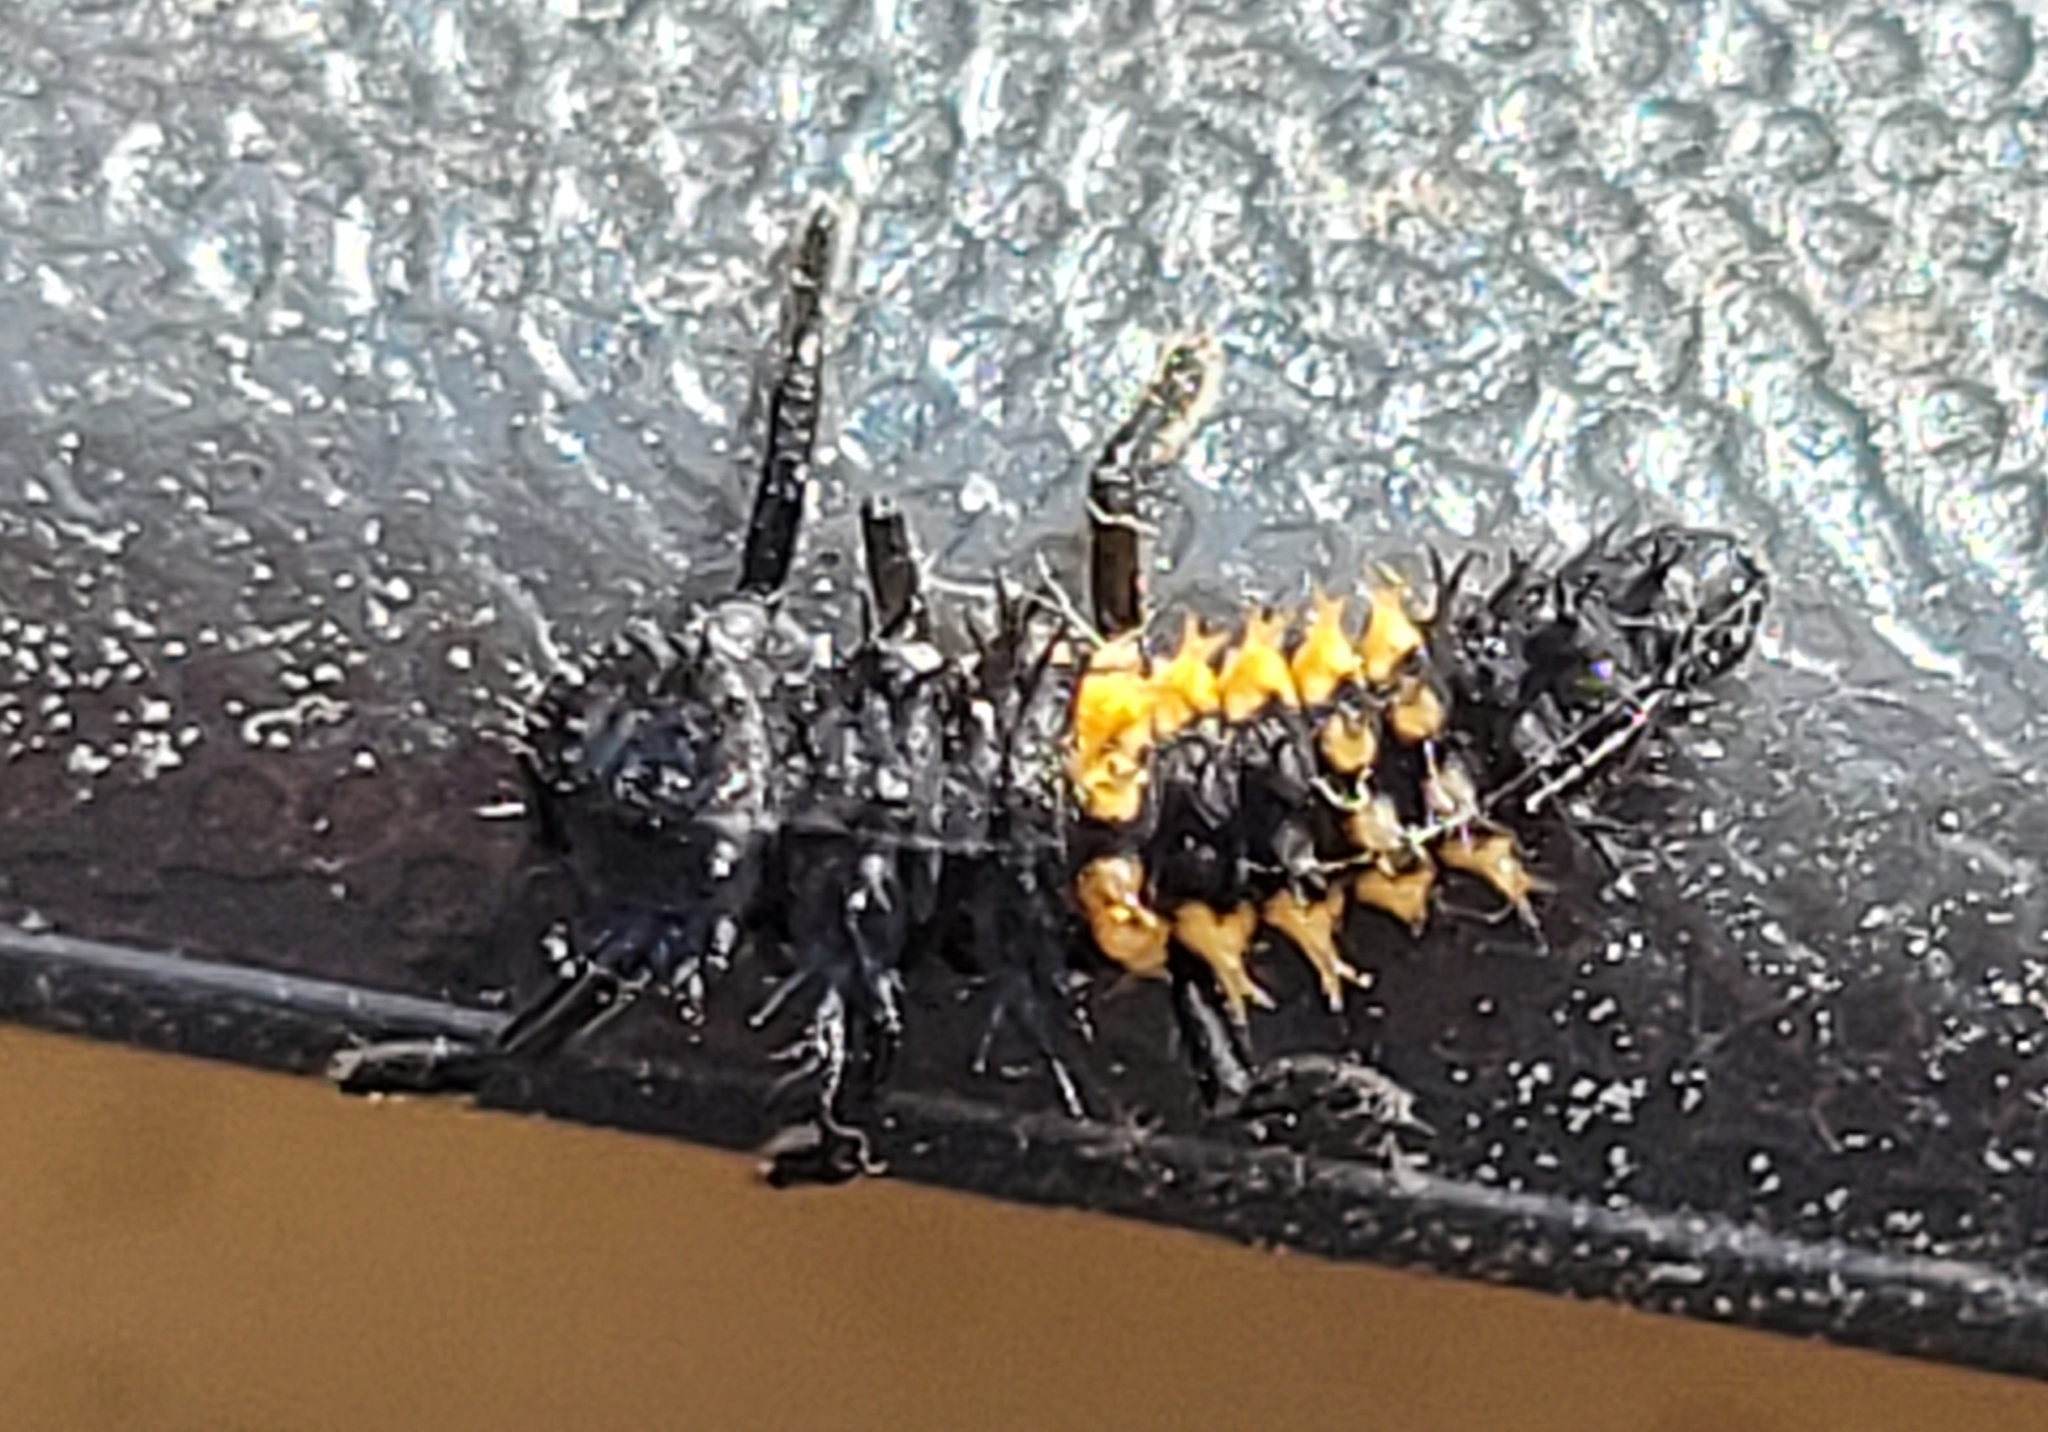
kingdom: Animalia
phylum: Arthropoda
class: Insecta
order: Coleoptera
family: Coccinellidae
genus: Harmonia
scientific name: Harmonia axyridis
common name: Harlequin ladybird
